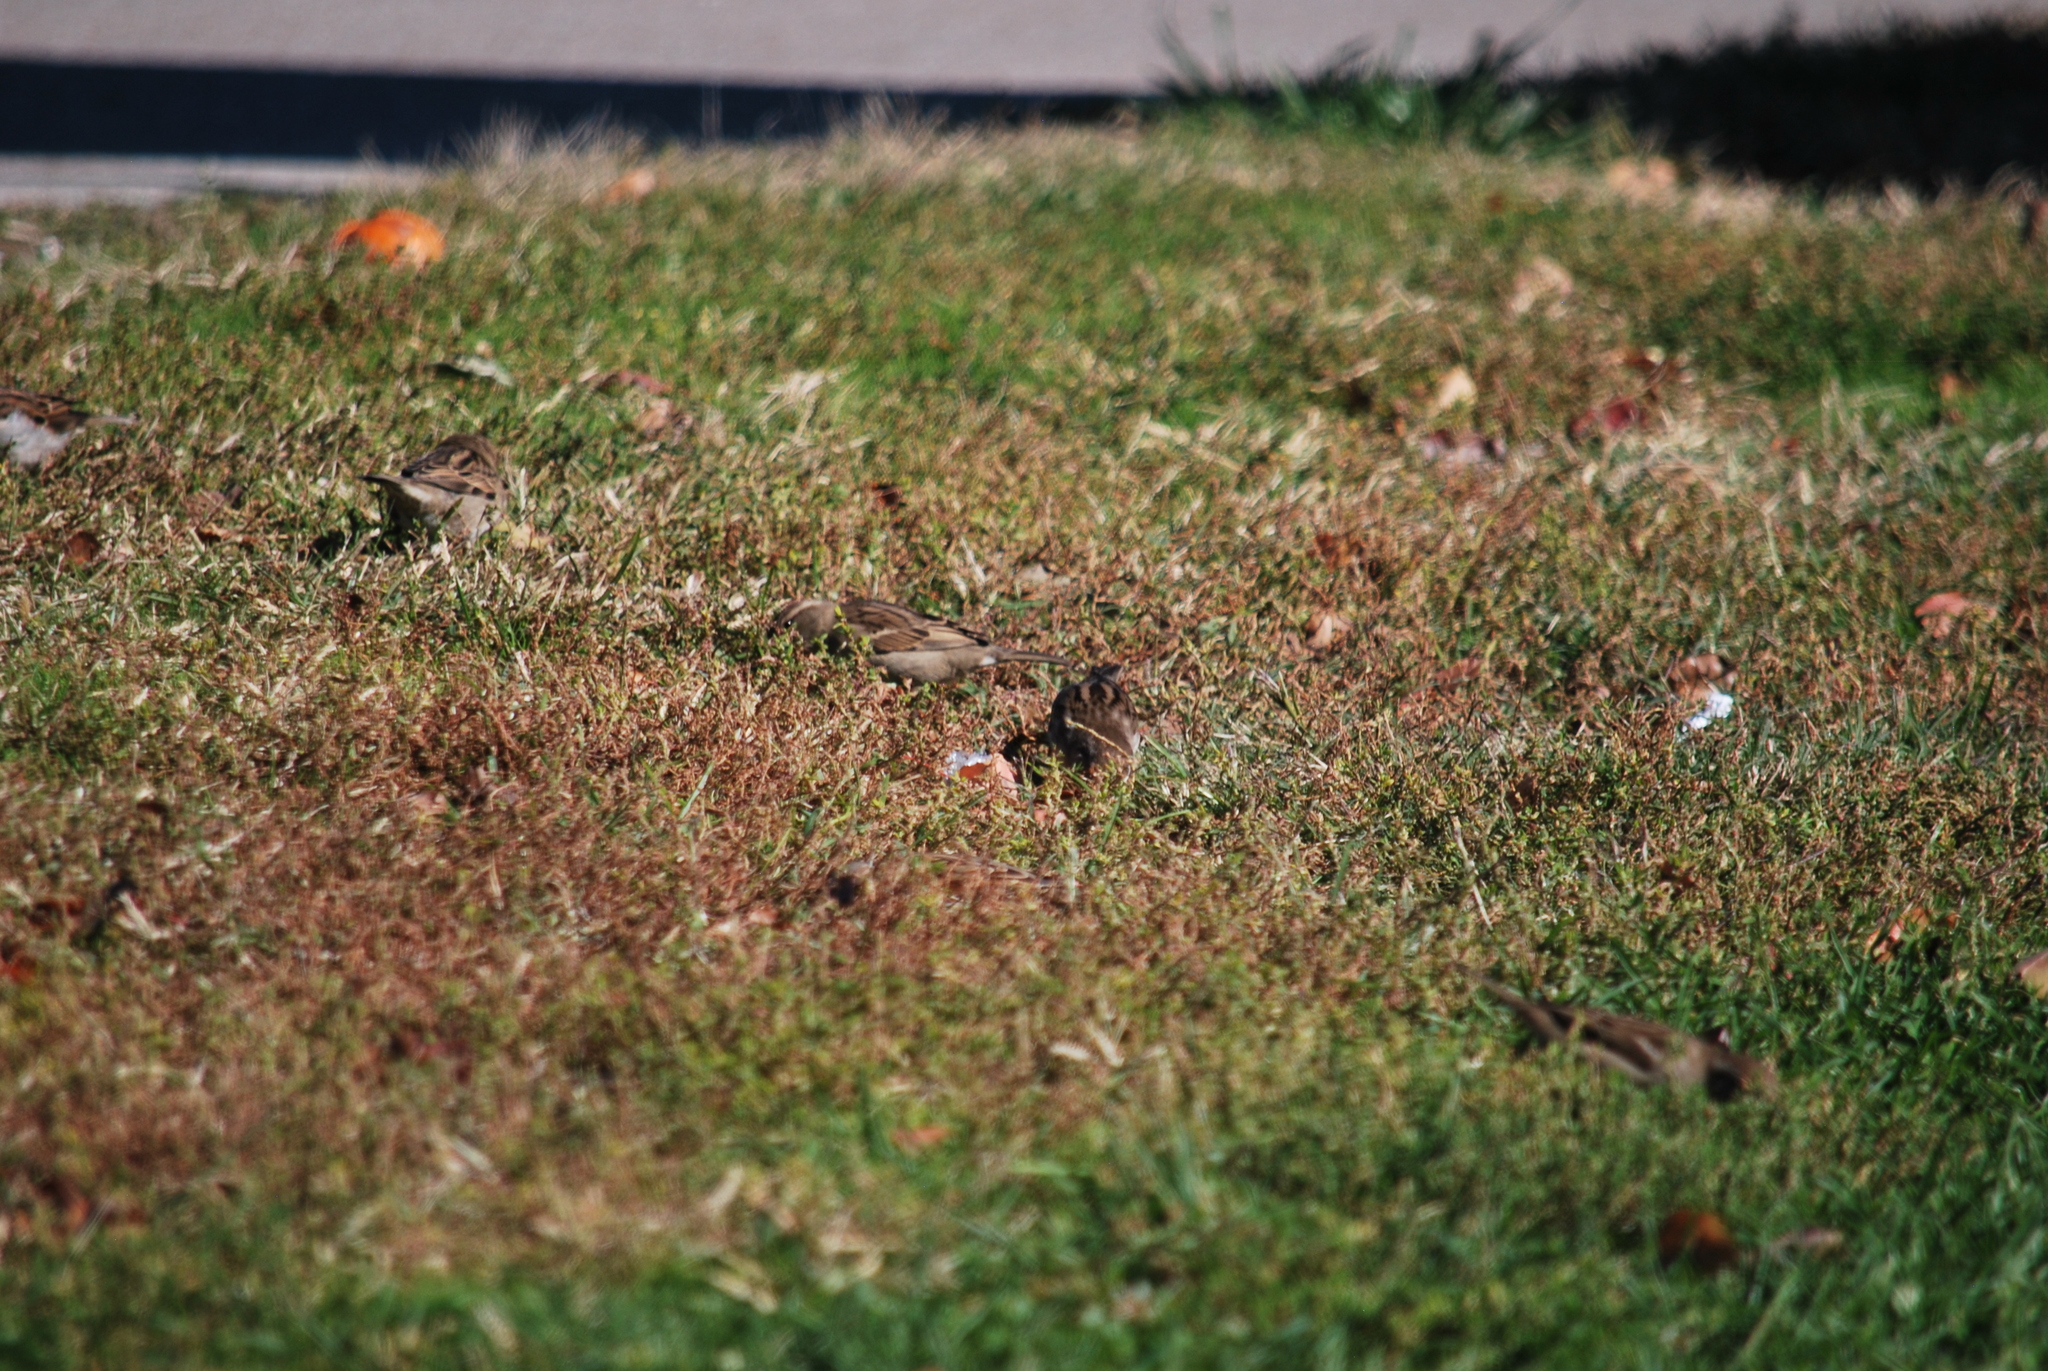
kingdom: Animalia
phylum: Chordata
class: Aves
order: Passeriformes
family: Passeridae
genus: Passer
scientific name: Passer domesticus
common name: House sparrow
